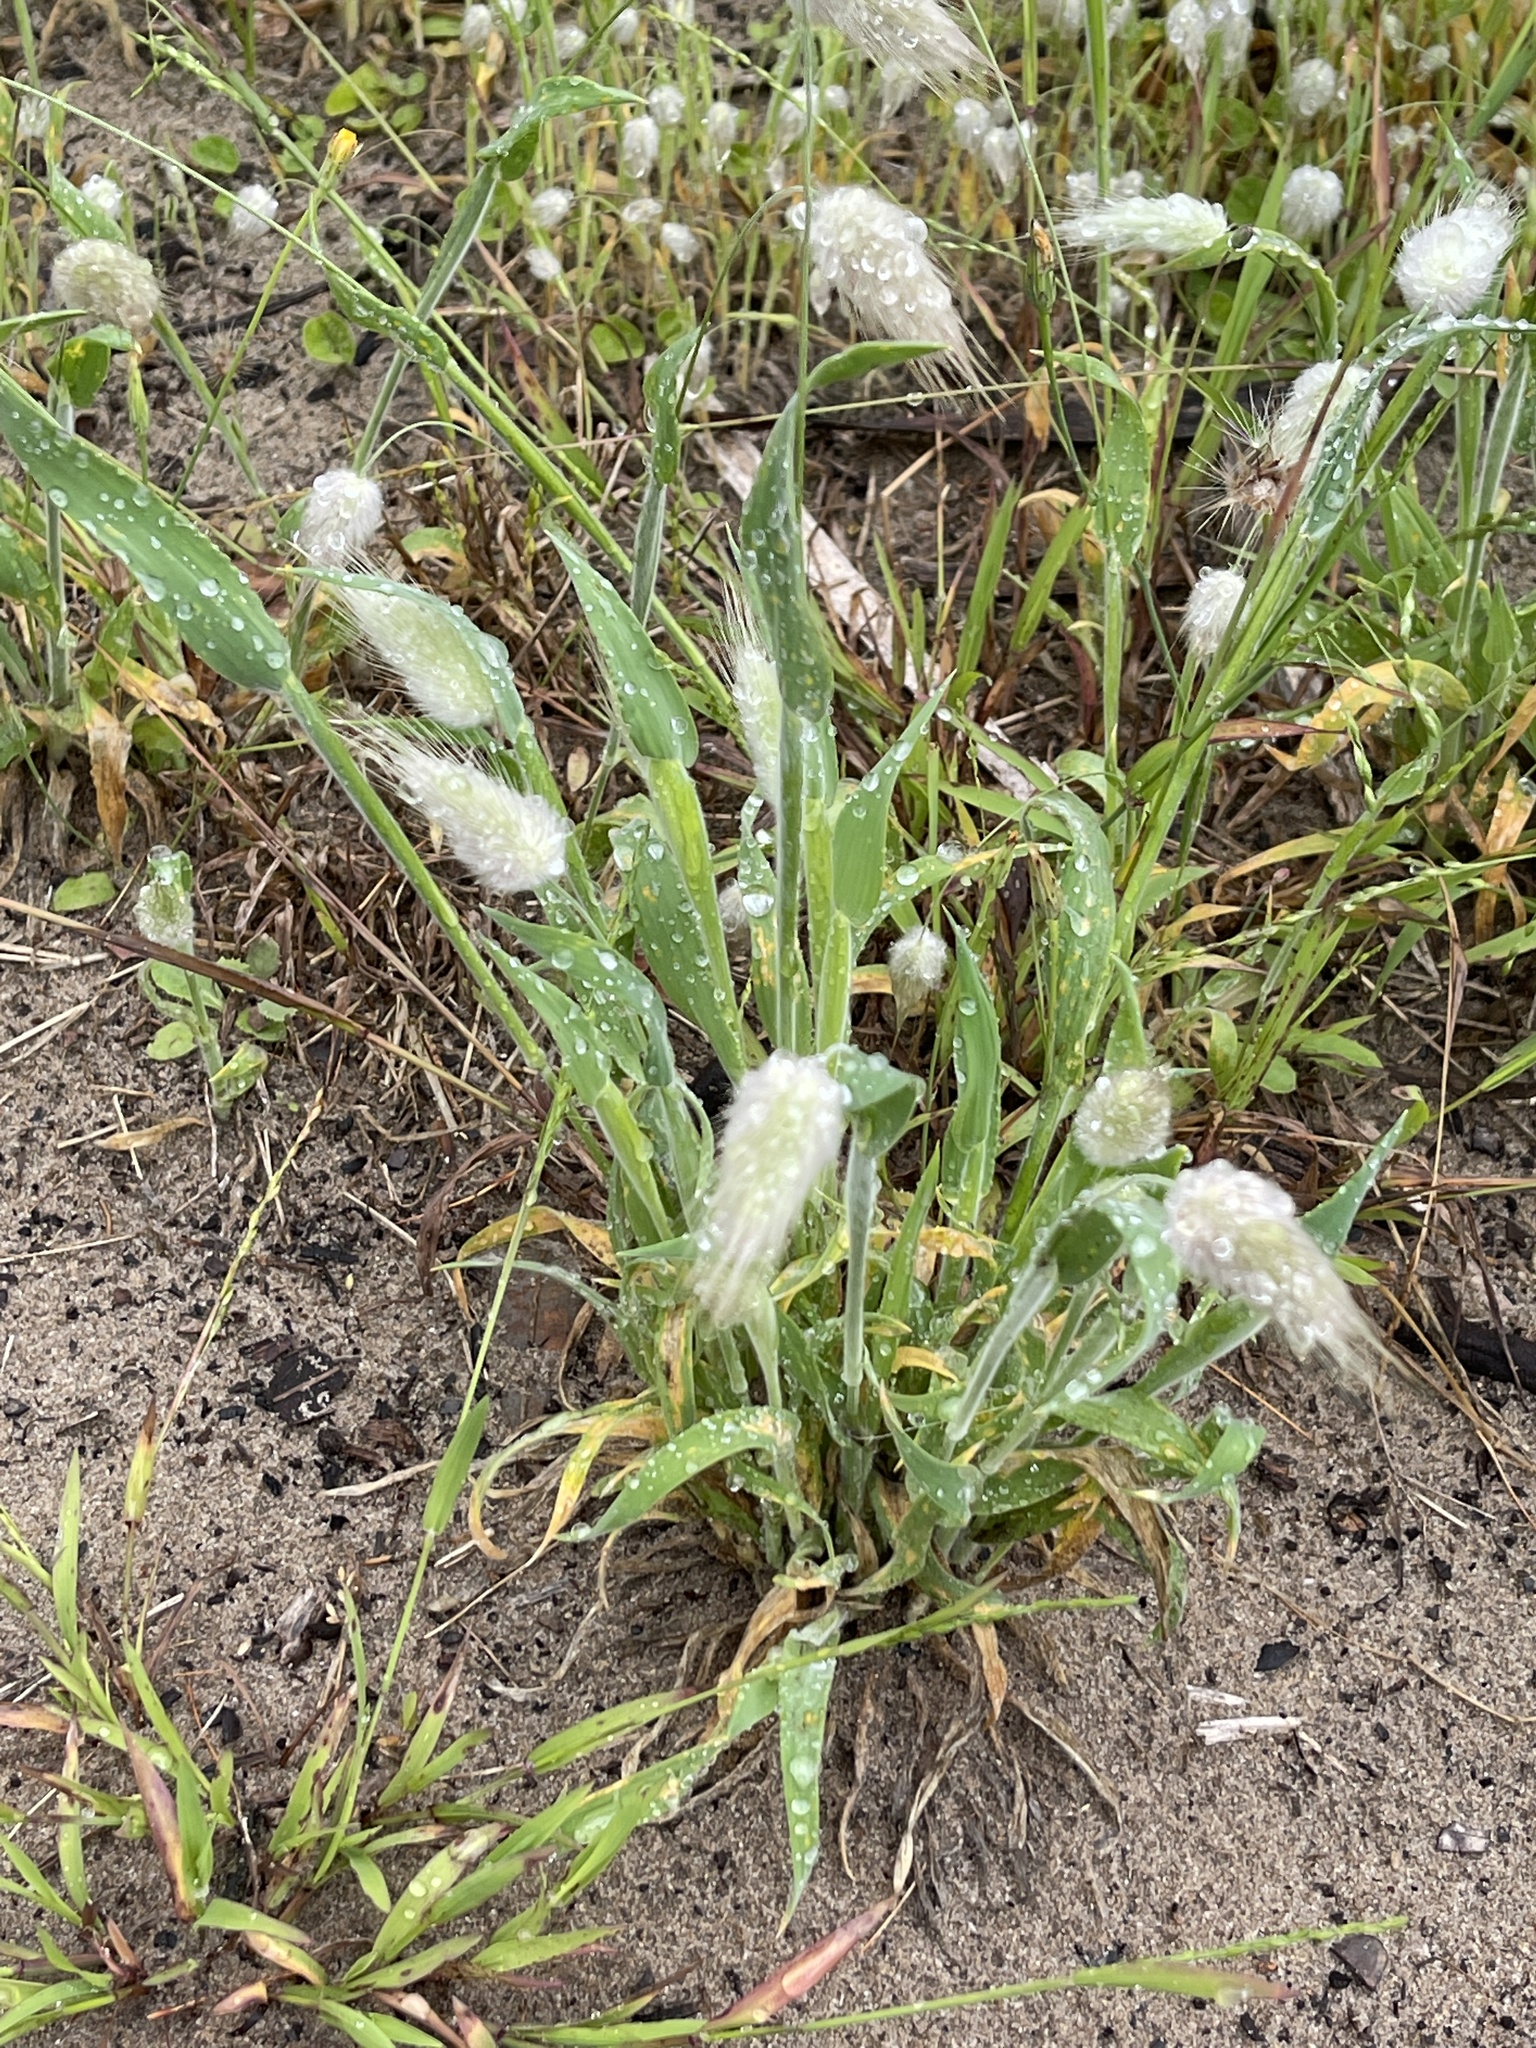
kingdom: Plantae
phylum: Tracheophyta
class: Liliopsida
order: Poales
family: Poaceae
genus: Lagurus
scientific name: Lagurus ovatus
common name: Hare's-tail
